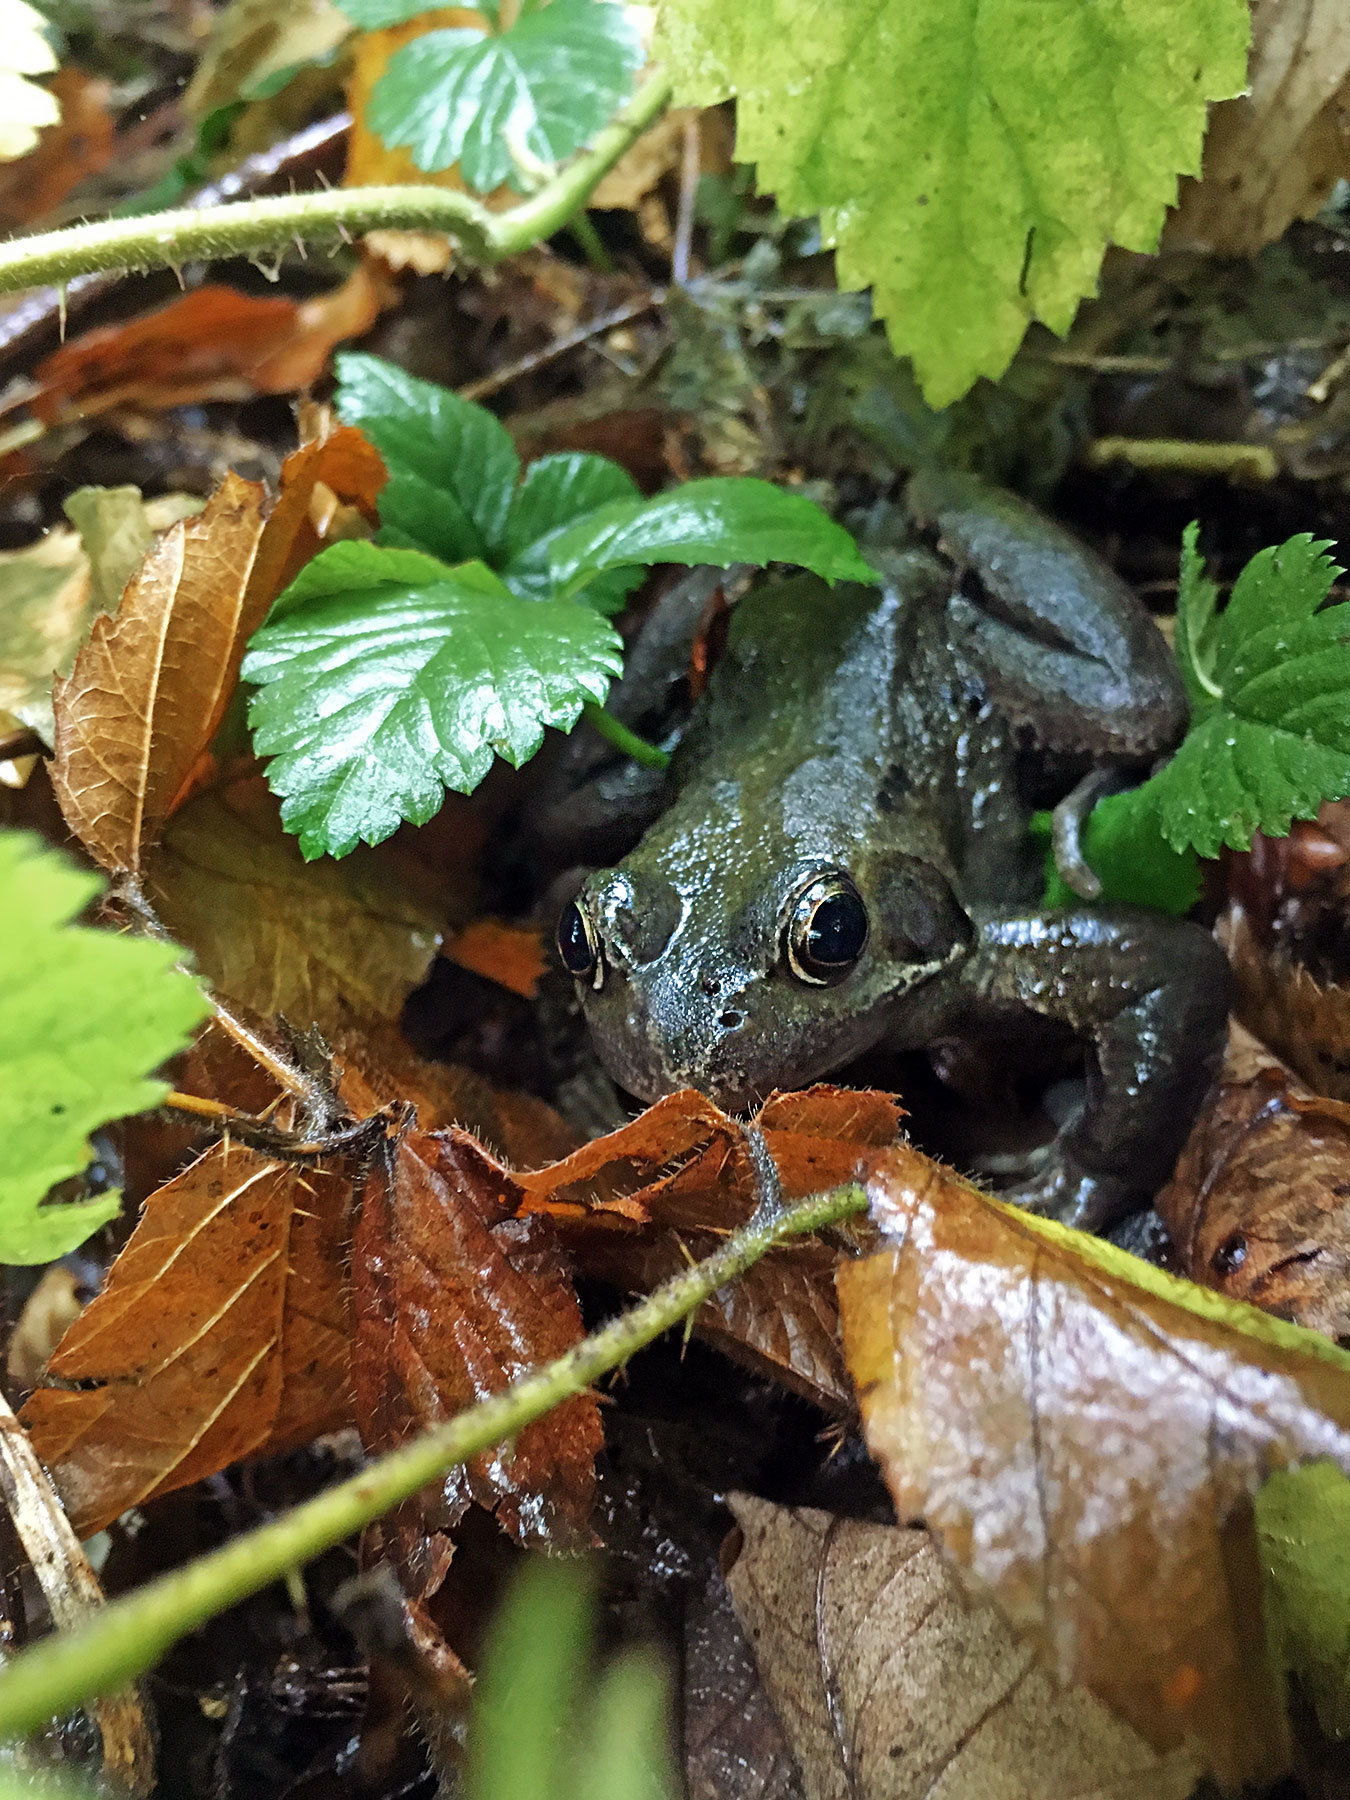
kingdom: Animalia
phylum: Chordata
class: Amphibia
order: Anura
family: Ranidae
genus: Rana
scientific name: Rana temporaria
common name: Common frog
